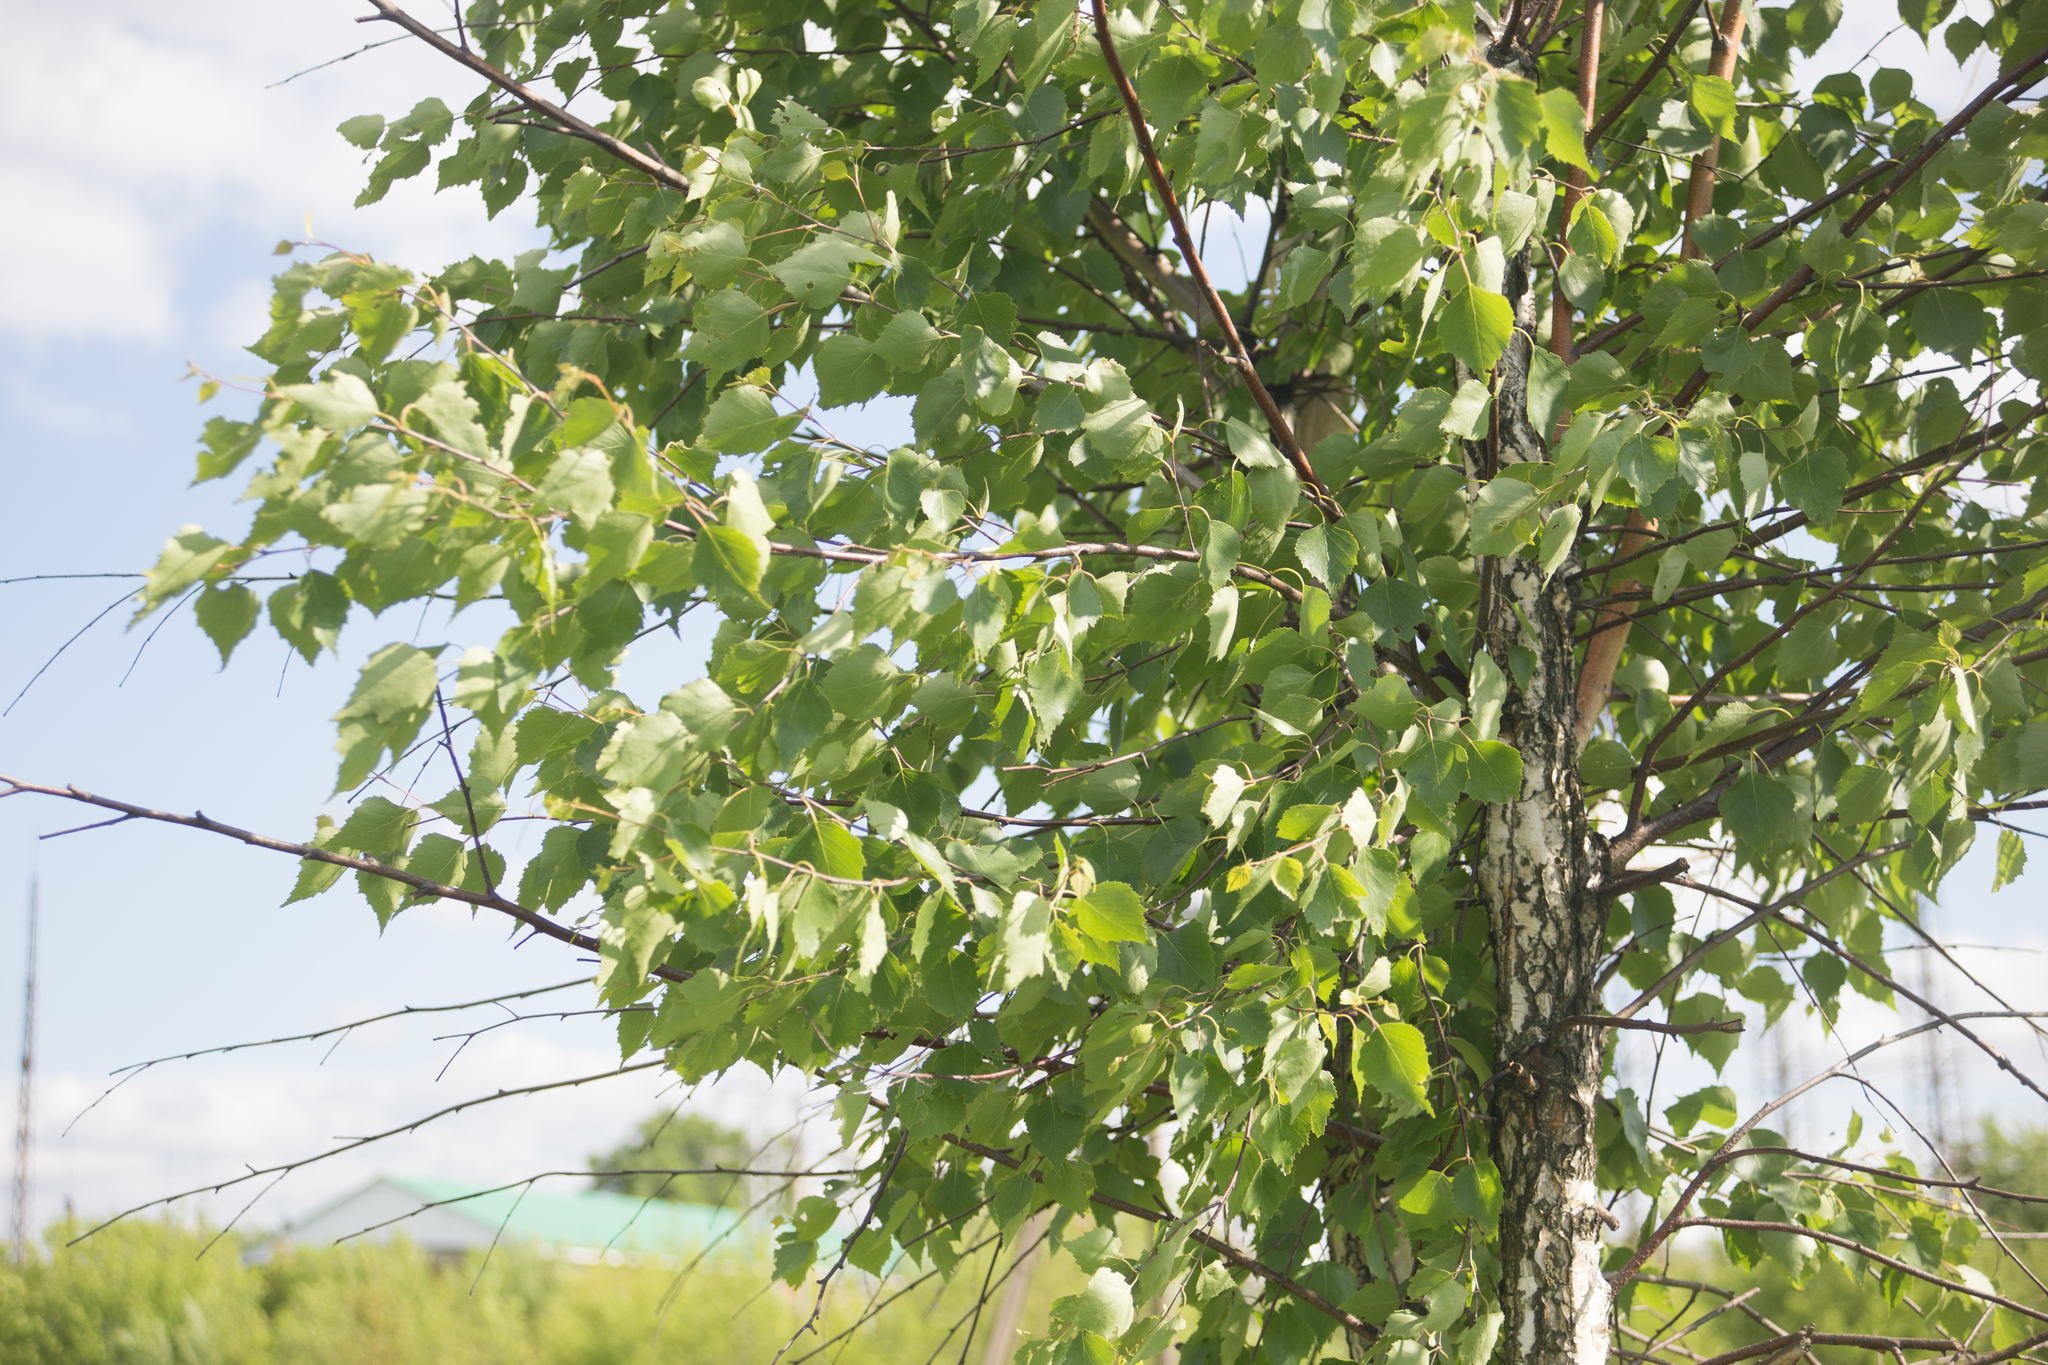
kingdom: Plantae
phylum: Tracheophyta
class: Magnoliopsida
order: Fagales
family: Betulaceae
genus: Betula
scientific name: Betula pendula
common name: Silver birch
